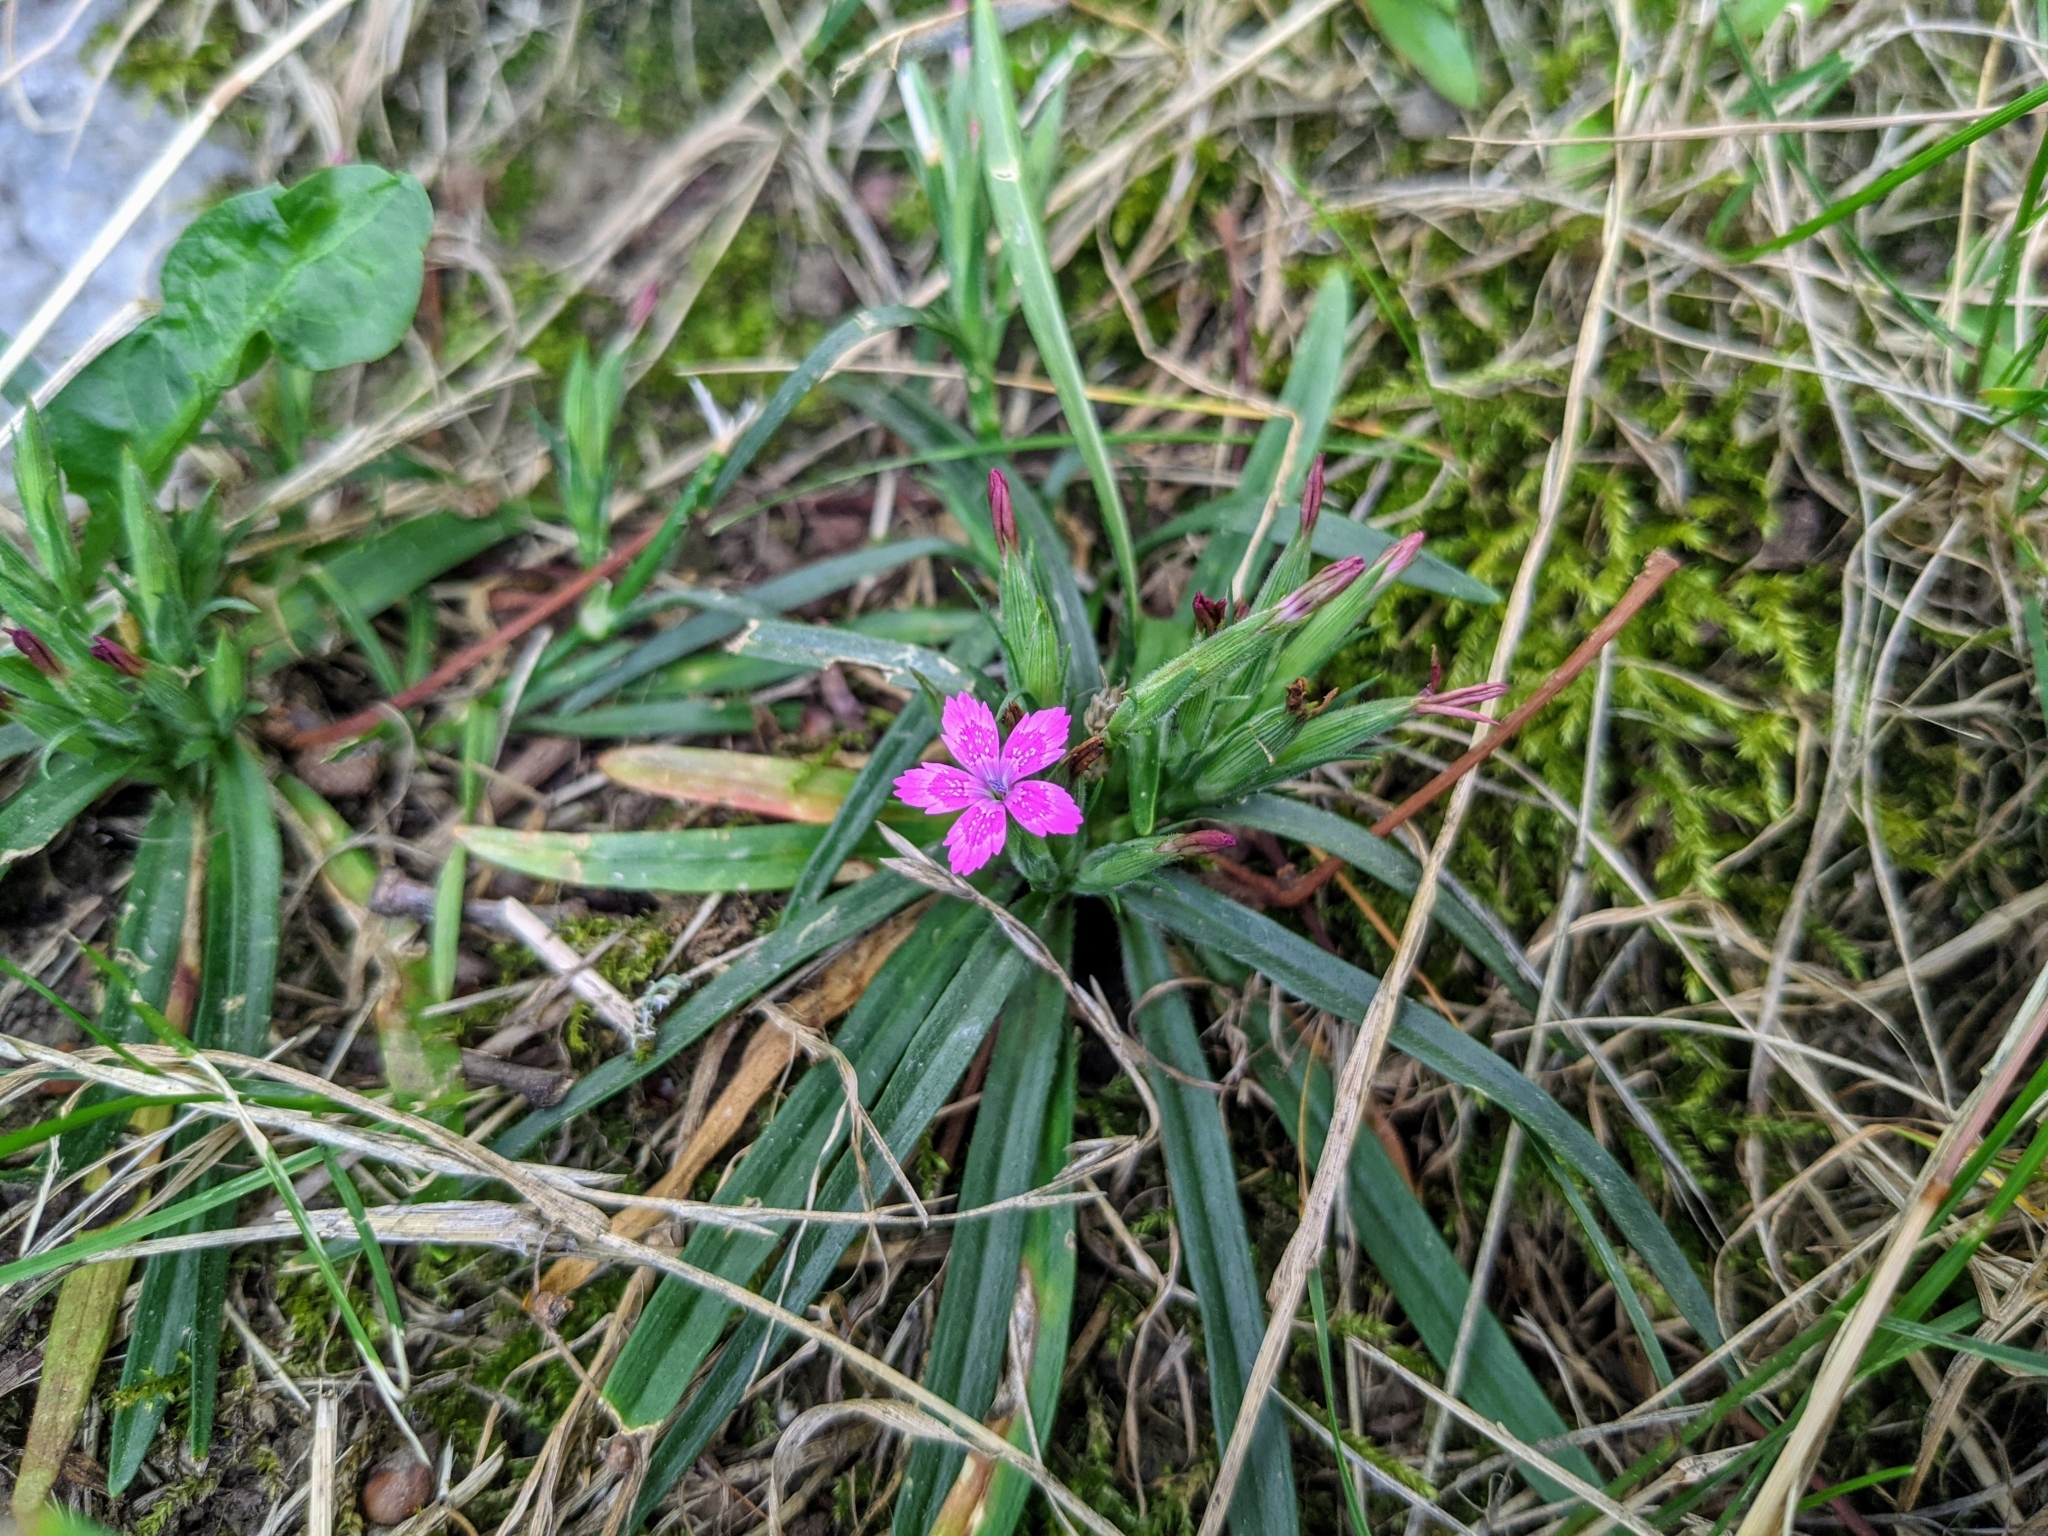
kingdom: Plantae
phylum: Tracheophyta
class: Magnoliopsida
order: Caryophyllales
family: Caryophyllaceae
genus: Dianthus
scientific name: Dianthus armeria
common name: Deptford pink
